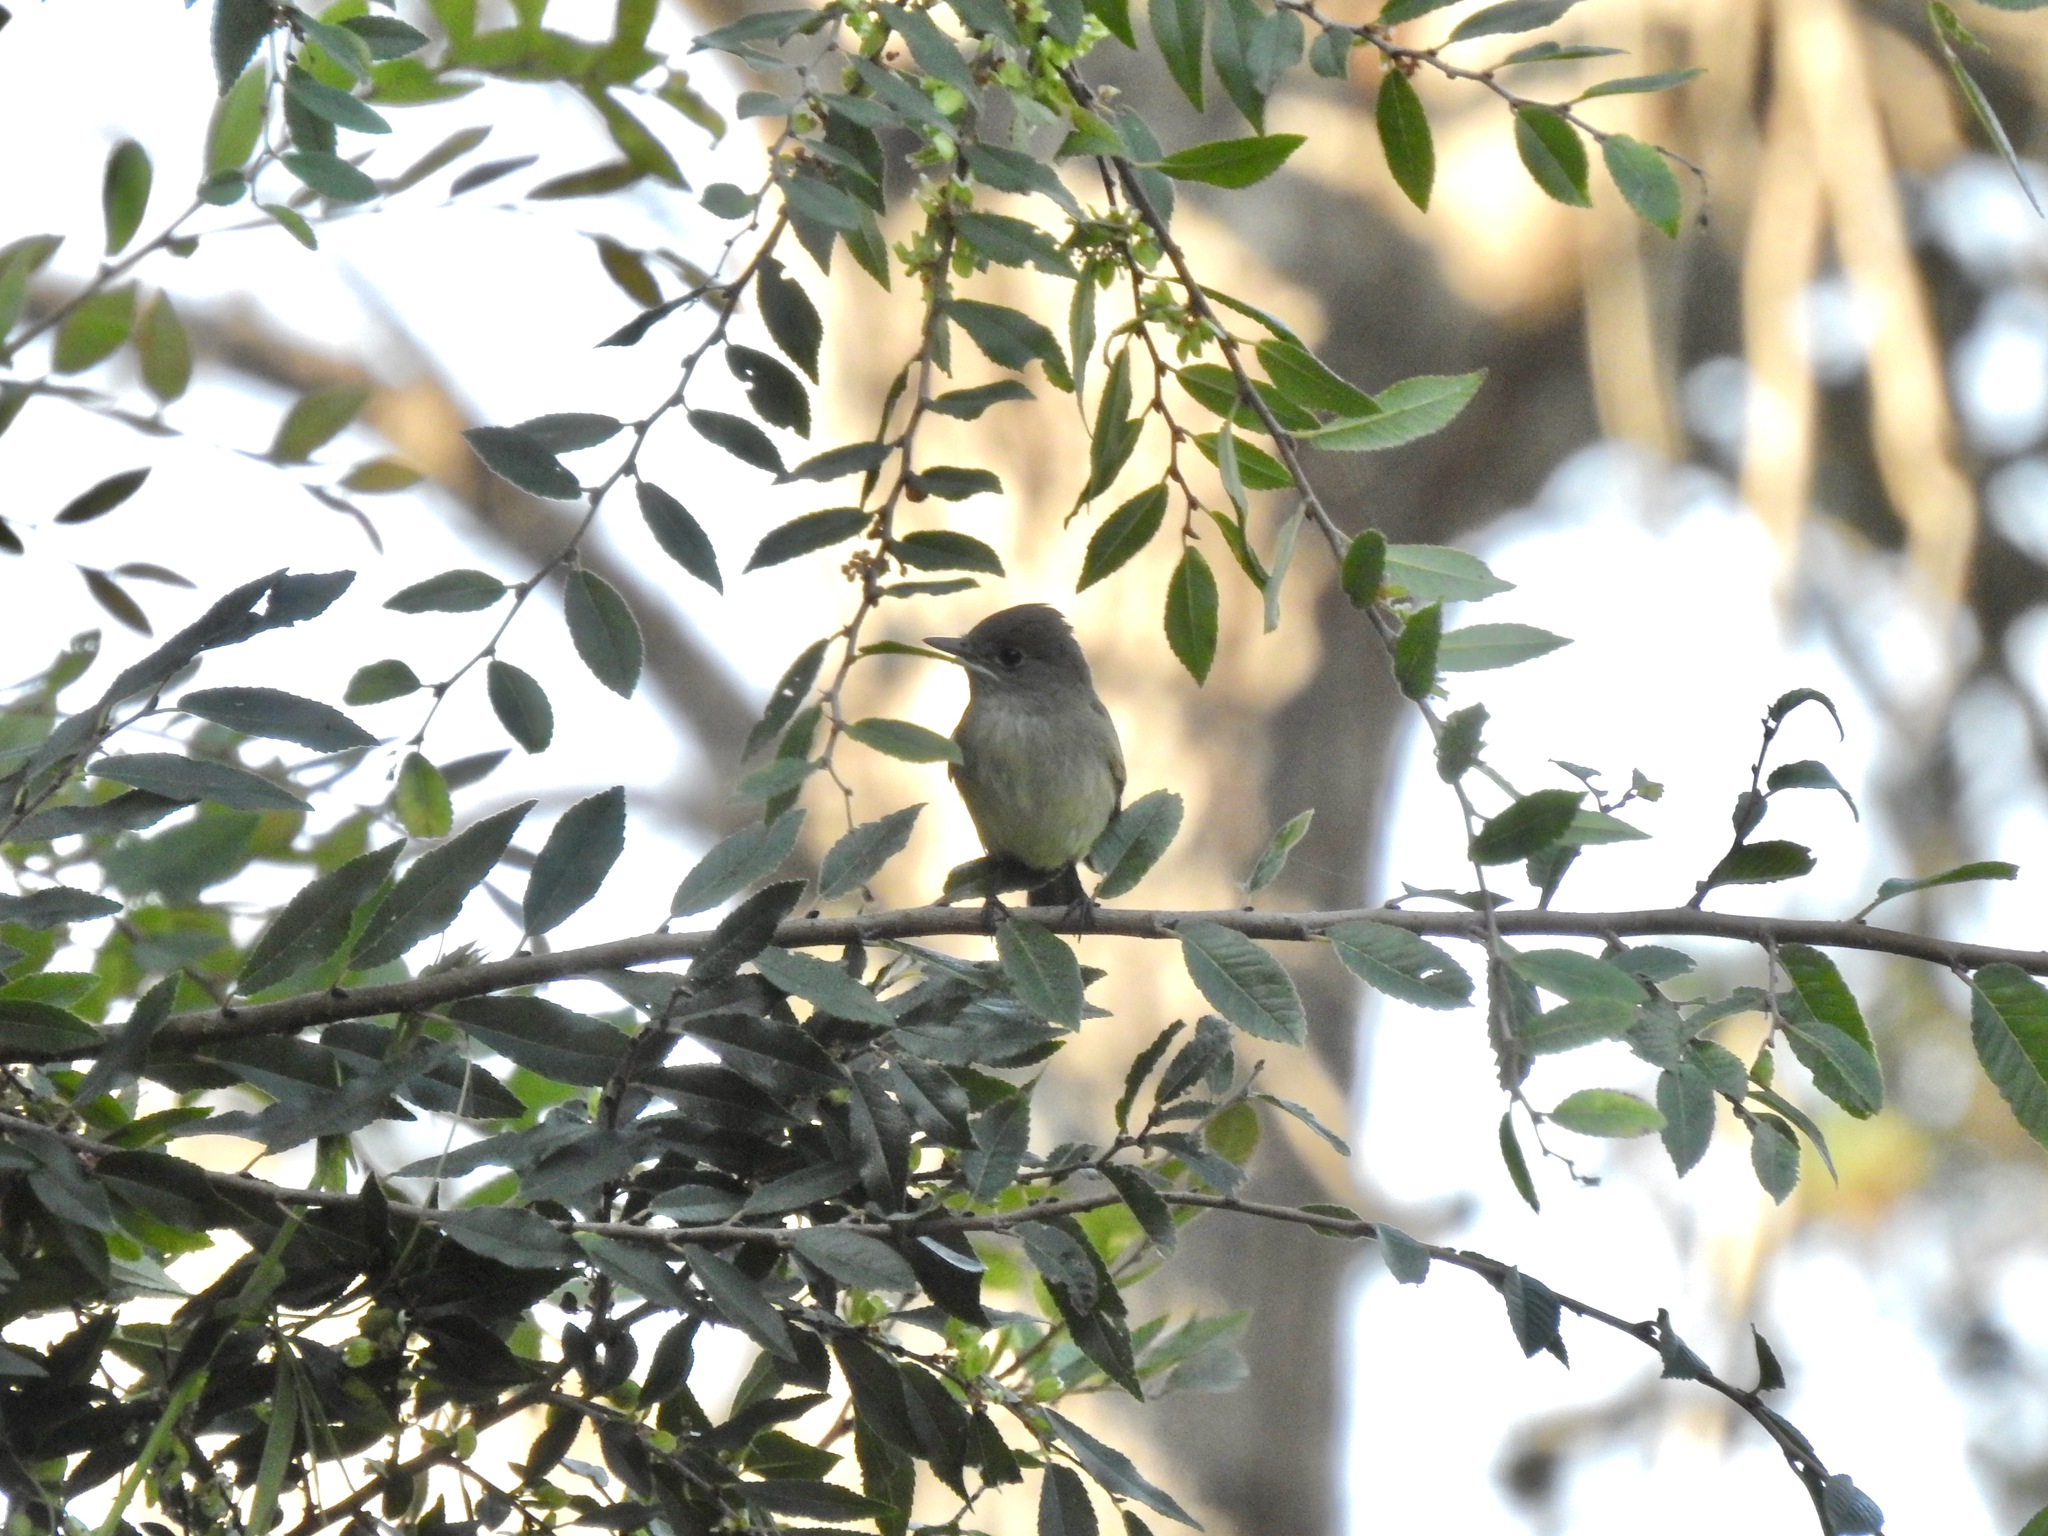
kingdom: Animalia
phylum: Chordata
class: Aves
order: Passeriformes
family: Tyrannidae
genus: Empidonax
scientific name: Empidonax traillii
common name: Willow flycatcher
